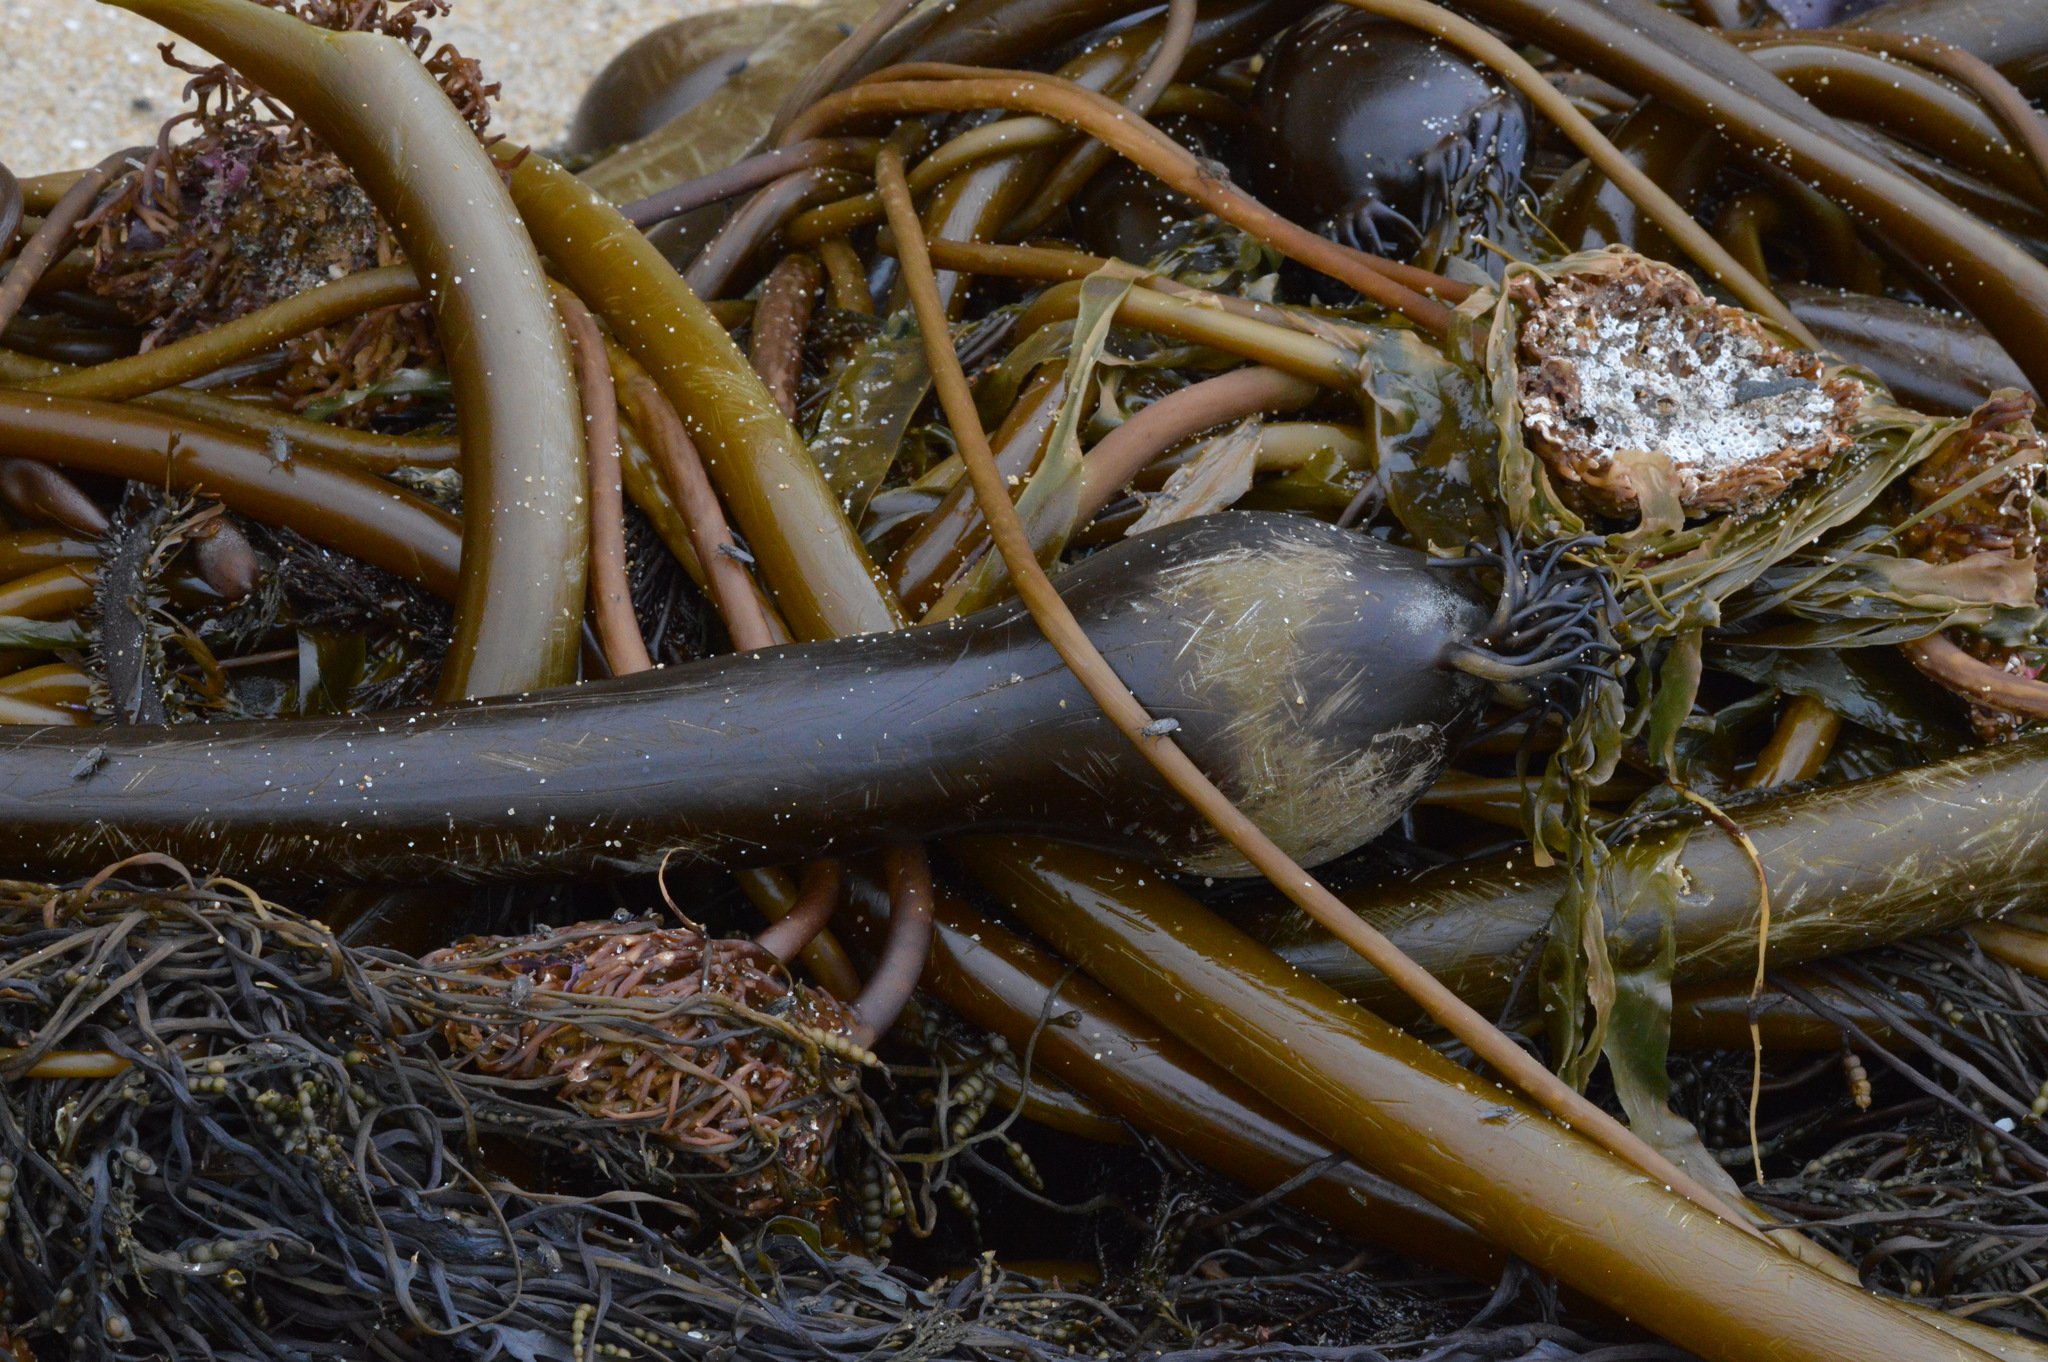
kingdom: Chromista
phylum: Ochrophyta
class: Phaeophyceae
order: Laminariales
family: Laminariaceae
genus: Nereocystis
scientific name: Nereocystis luetkeana
